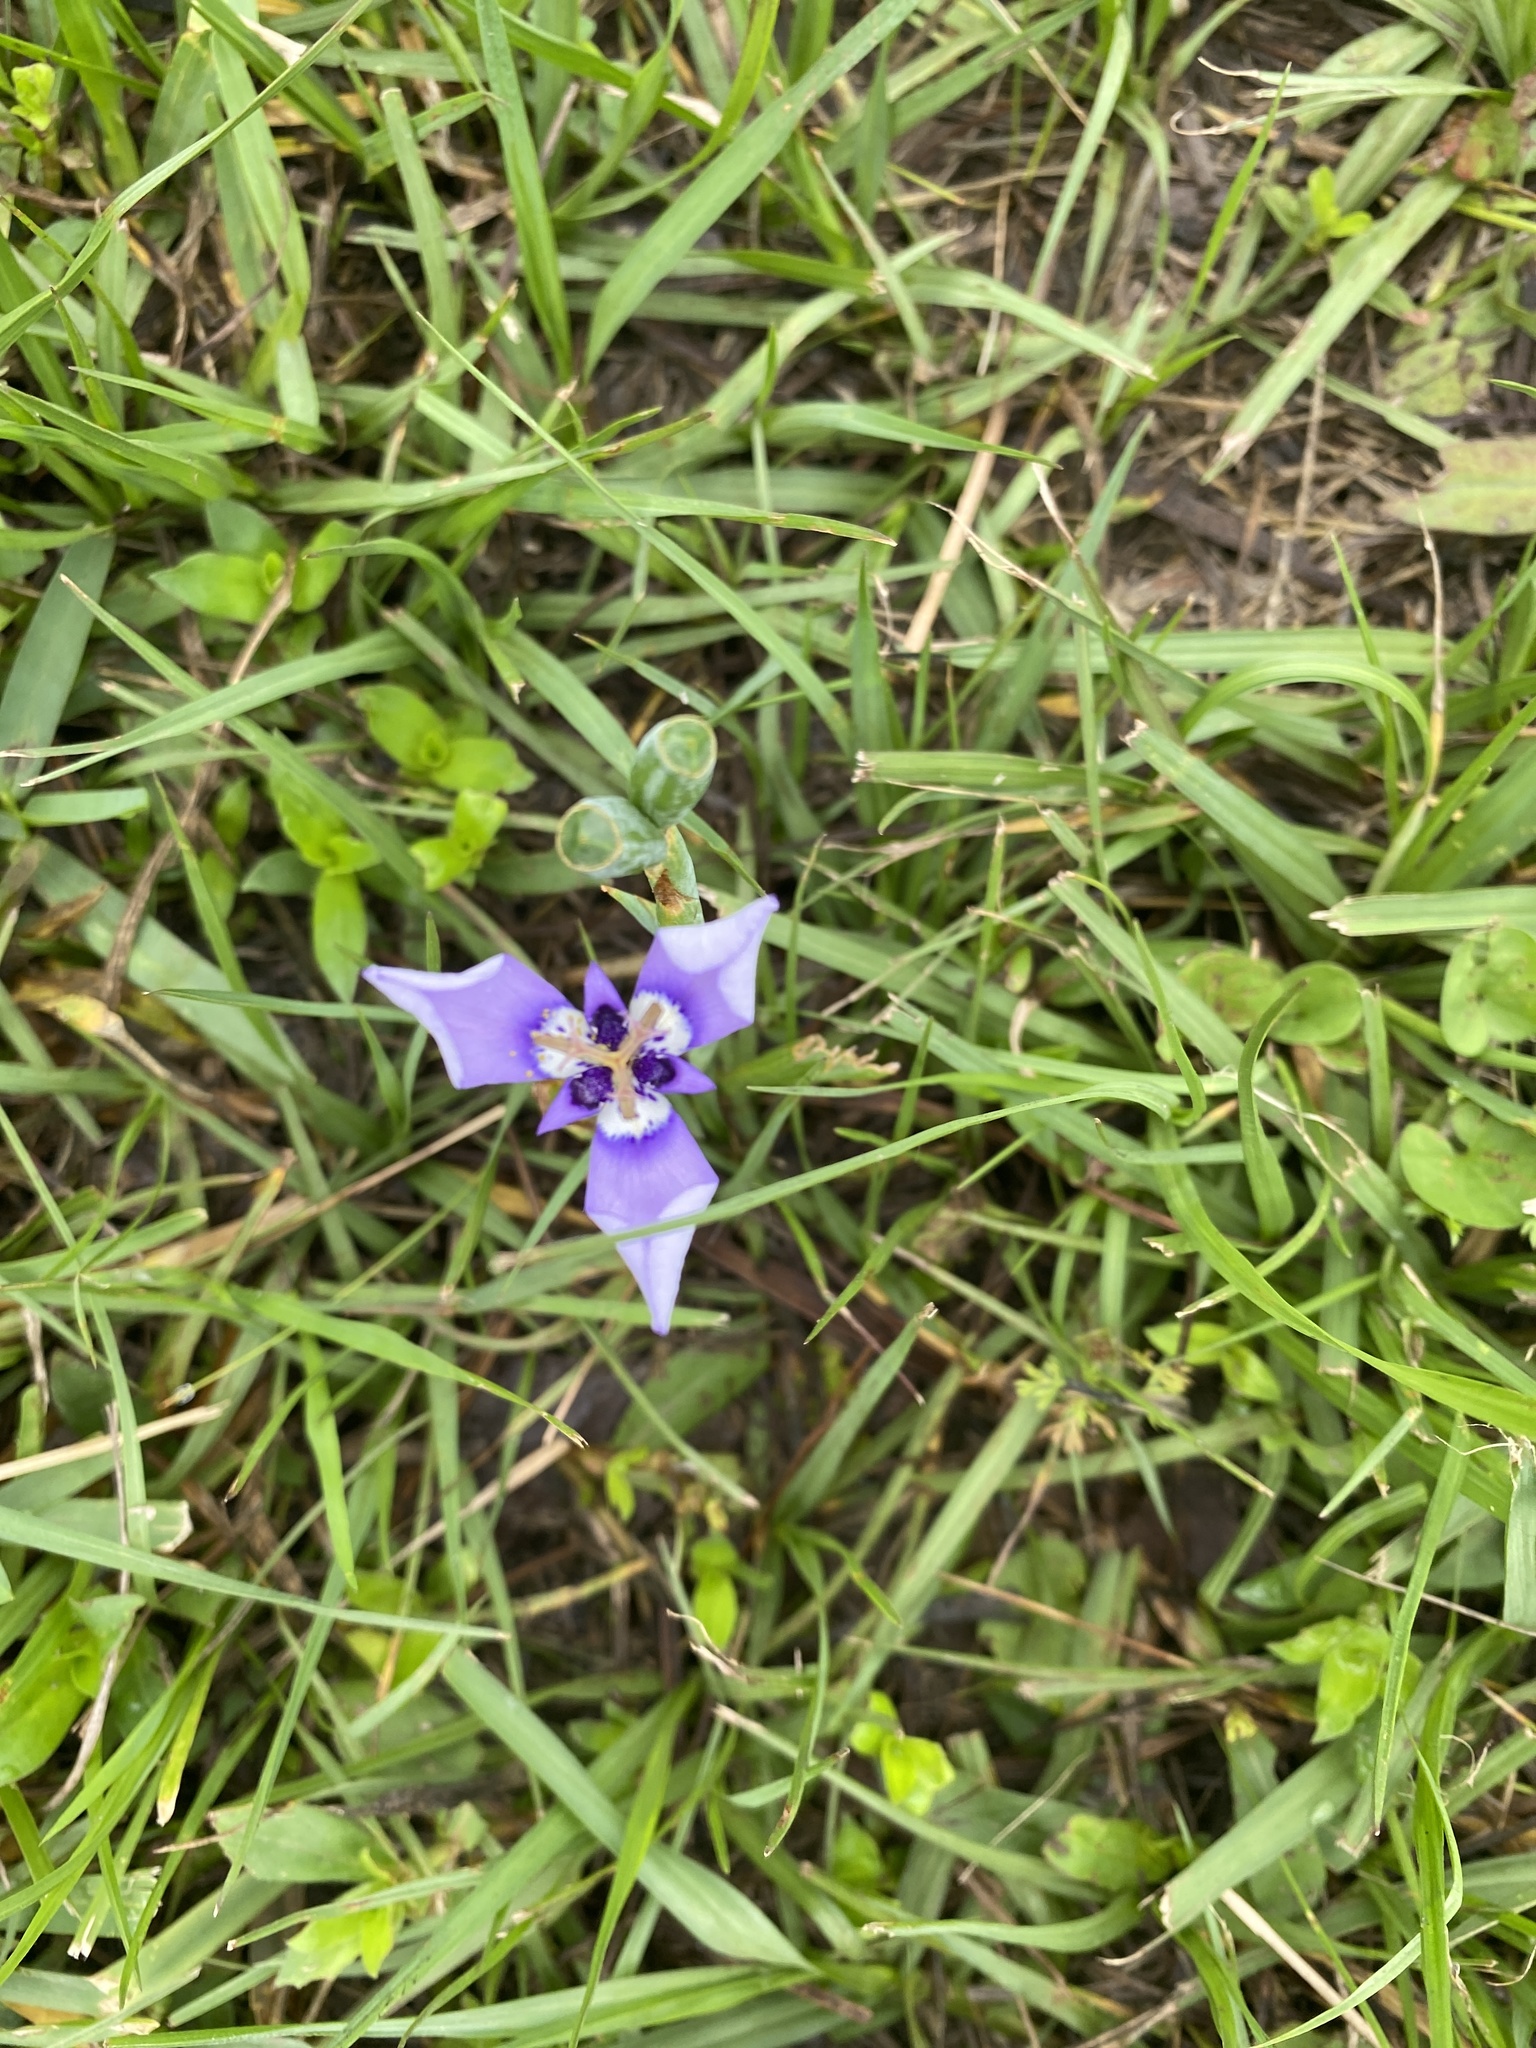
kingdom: Plantae
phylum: Tracheophyta
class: Liliopsida
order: Asparagales
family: Iridaceae
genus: Herbertia
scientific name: Herbertia lahue
